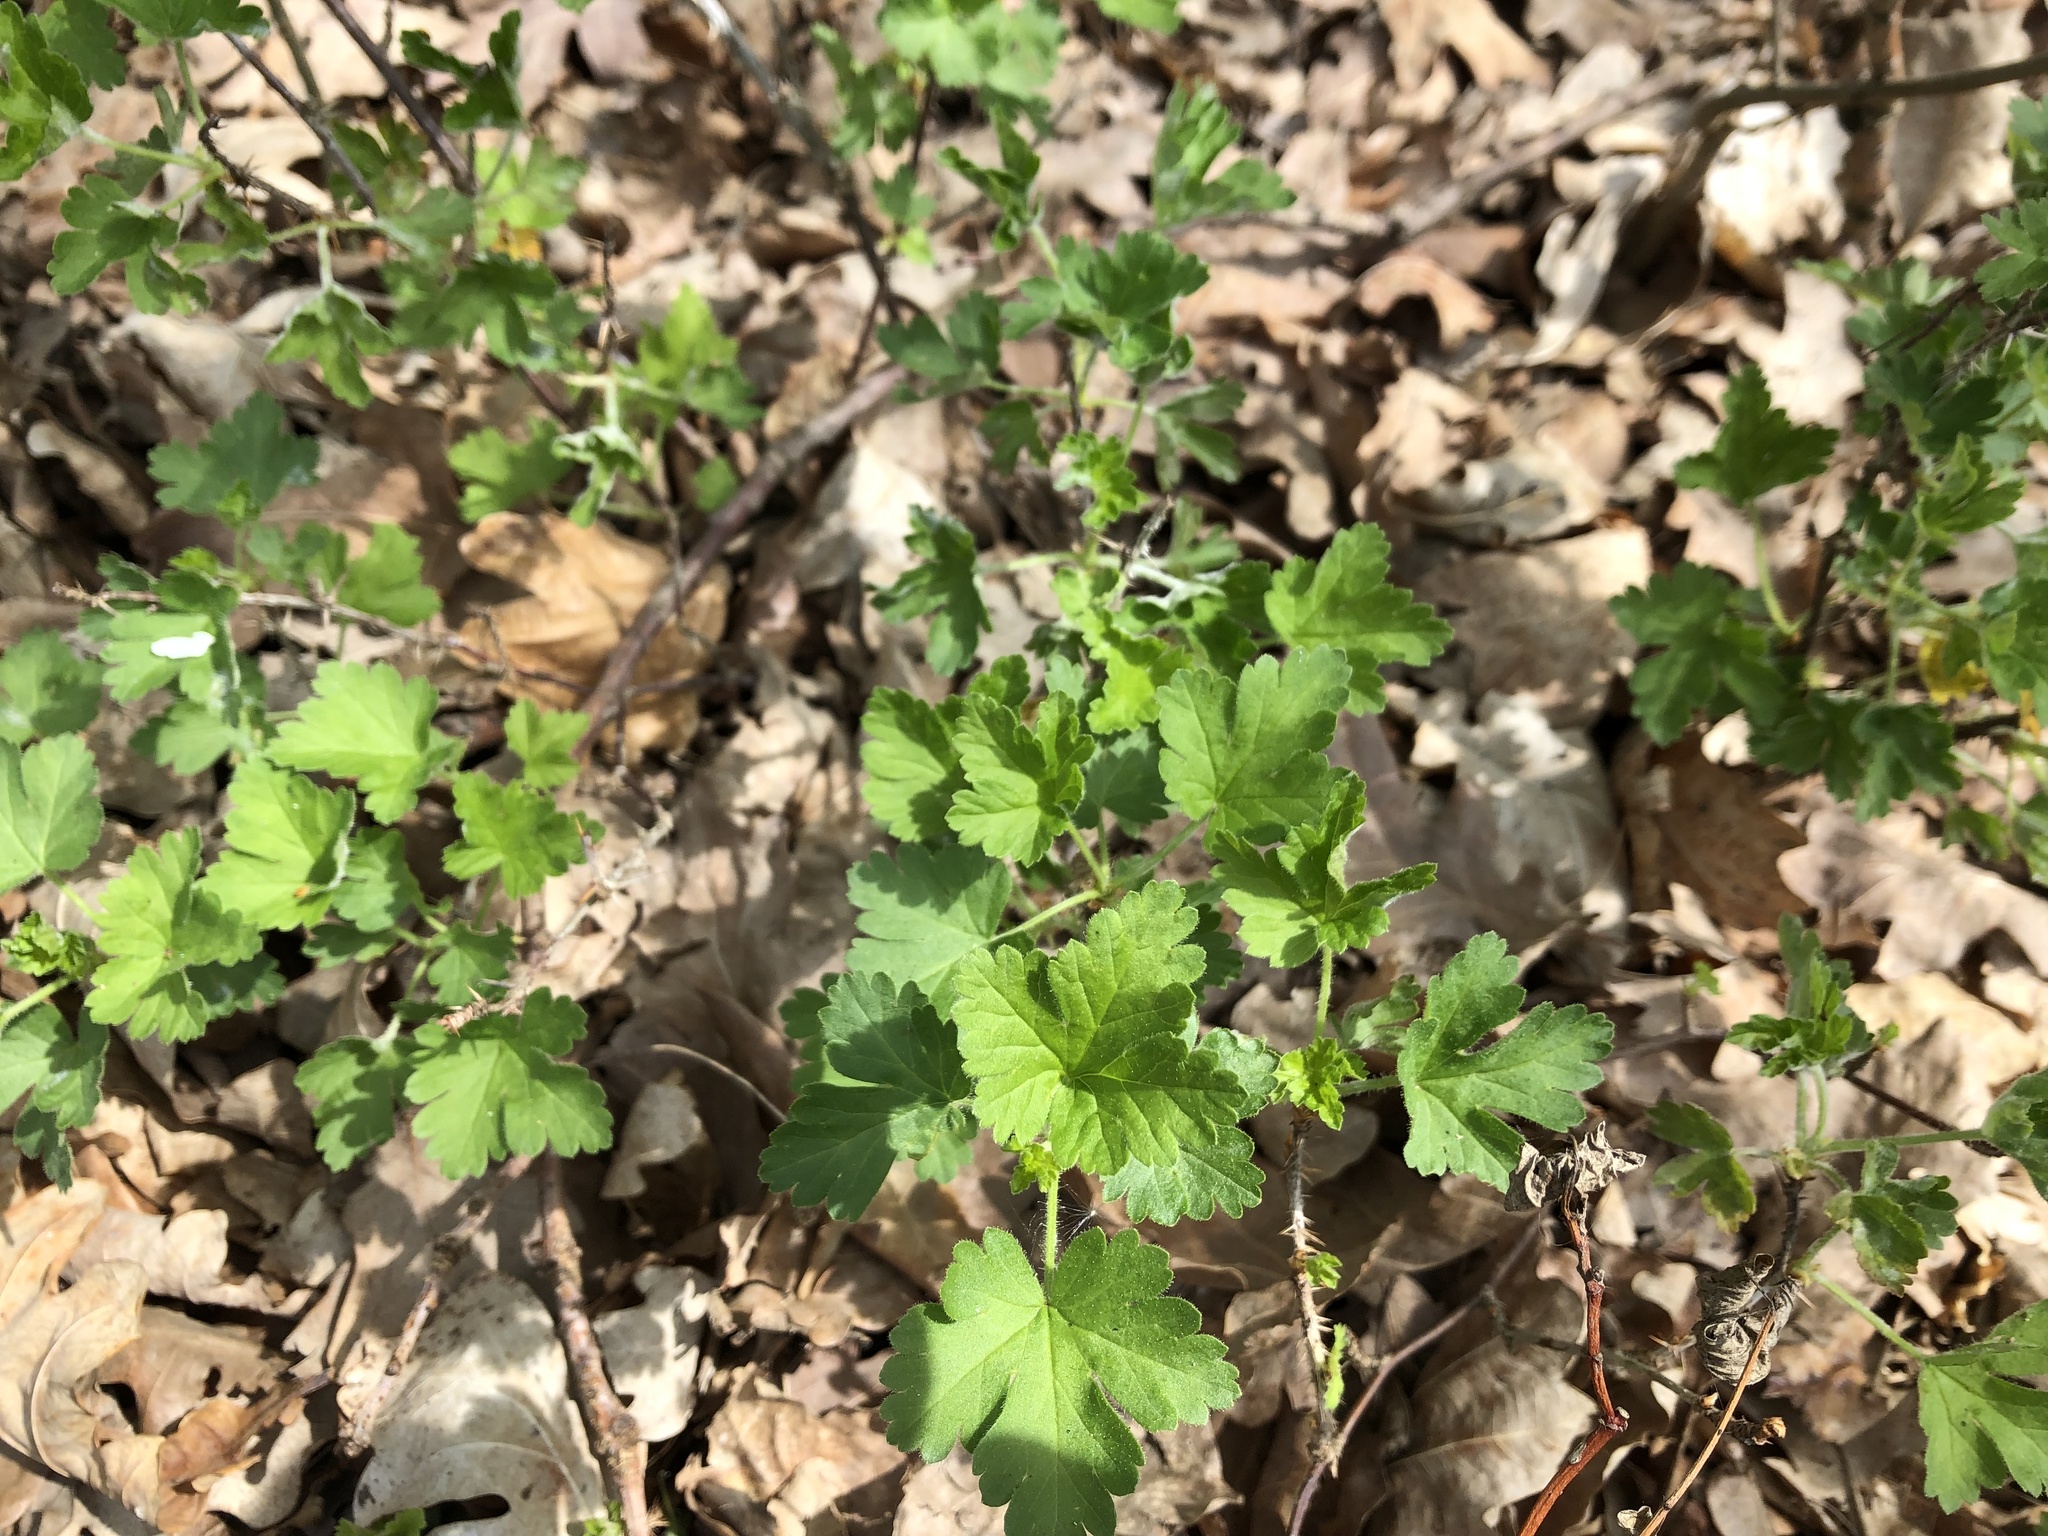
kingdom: Plantae
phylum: Tracheophyta
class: Magnoliopsida
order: Saxifragales
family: Grossulariaceae
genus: Ribes
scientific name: Ribes uva-crispa
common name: Gooseberry
